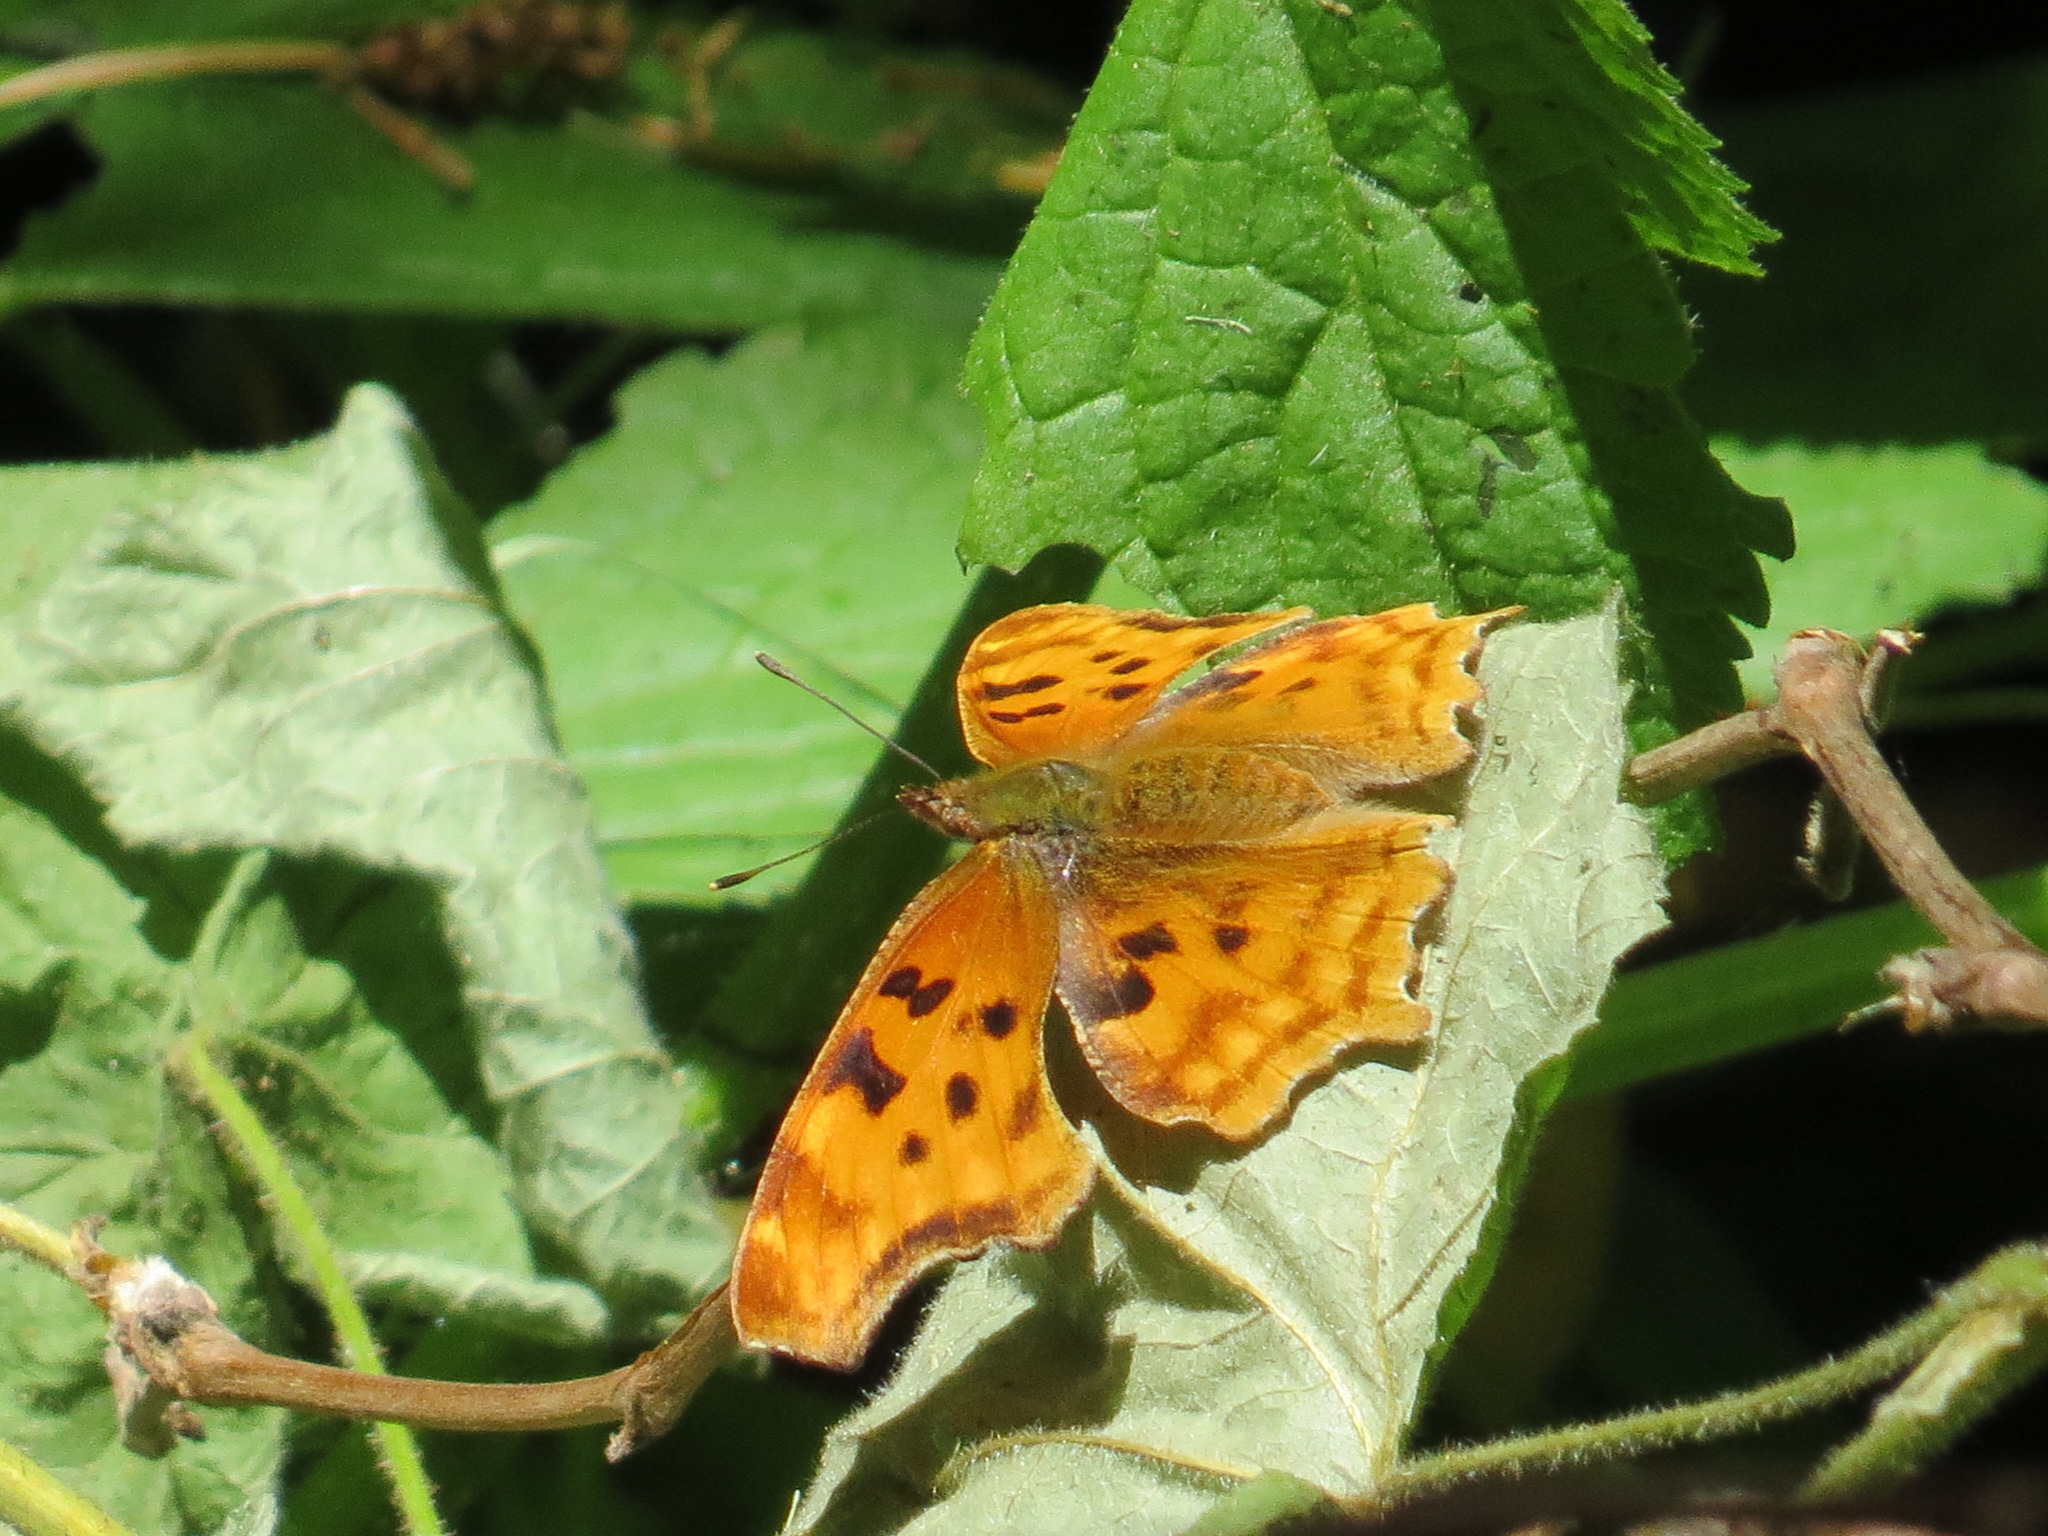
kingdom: Animalia
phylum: Arthropoda
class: Insecta
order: Lepidoptera
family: Nymphalidae
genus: Polygonia
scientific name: Polygonia satyrus
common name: Satyr angle wing
